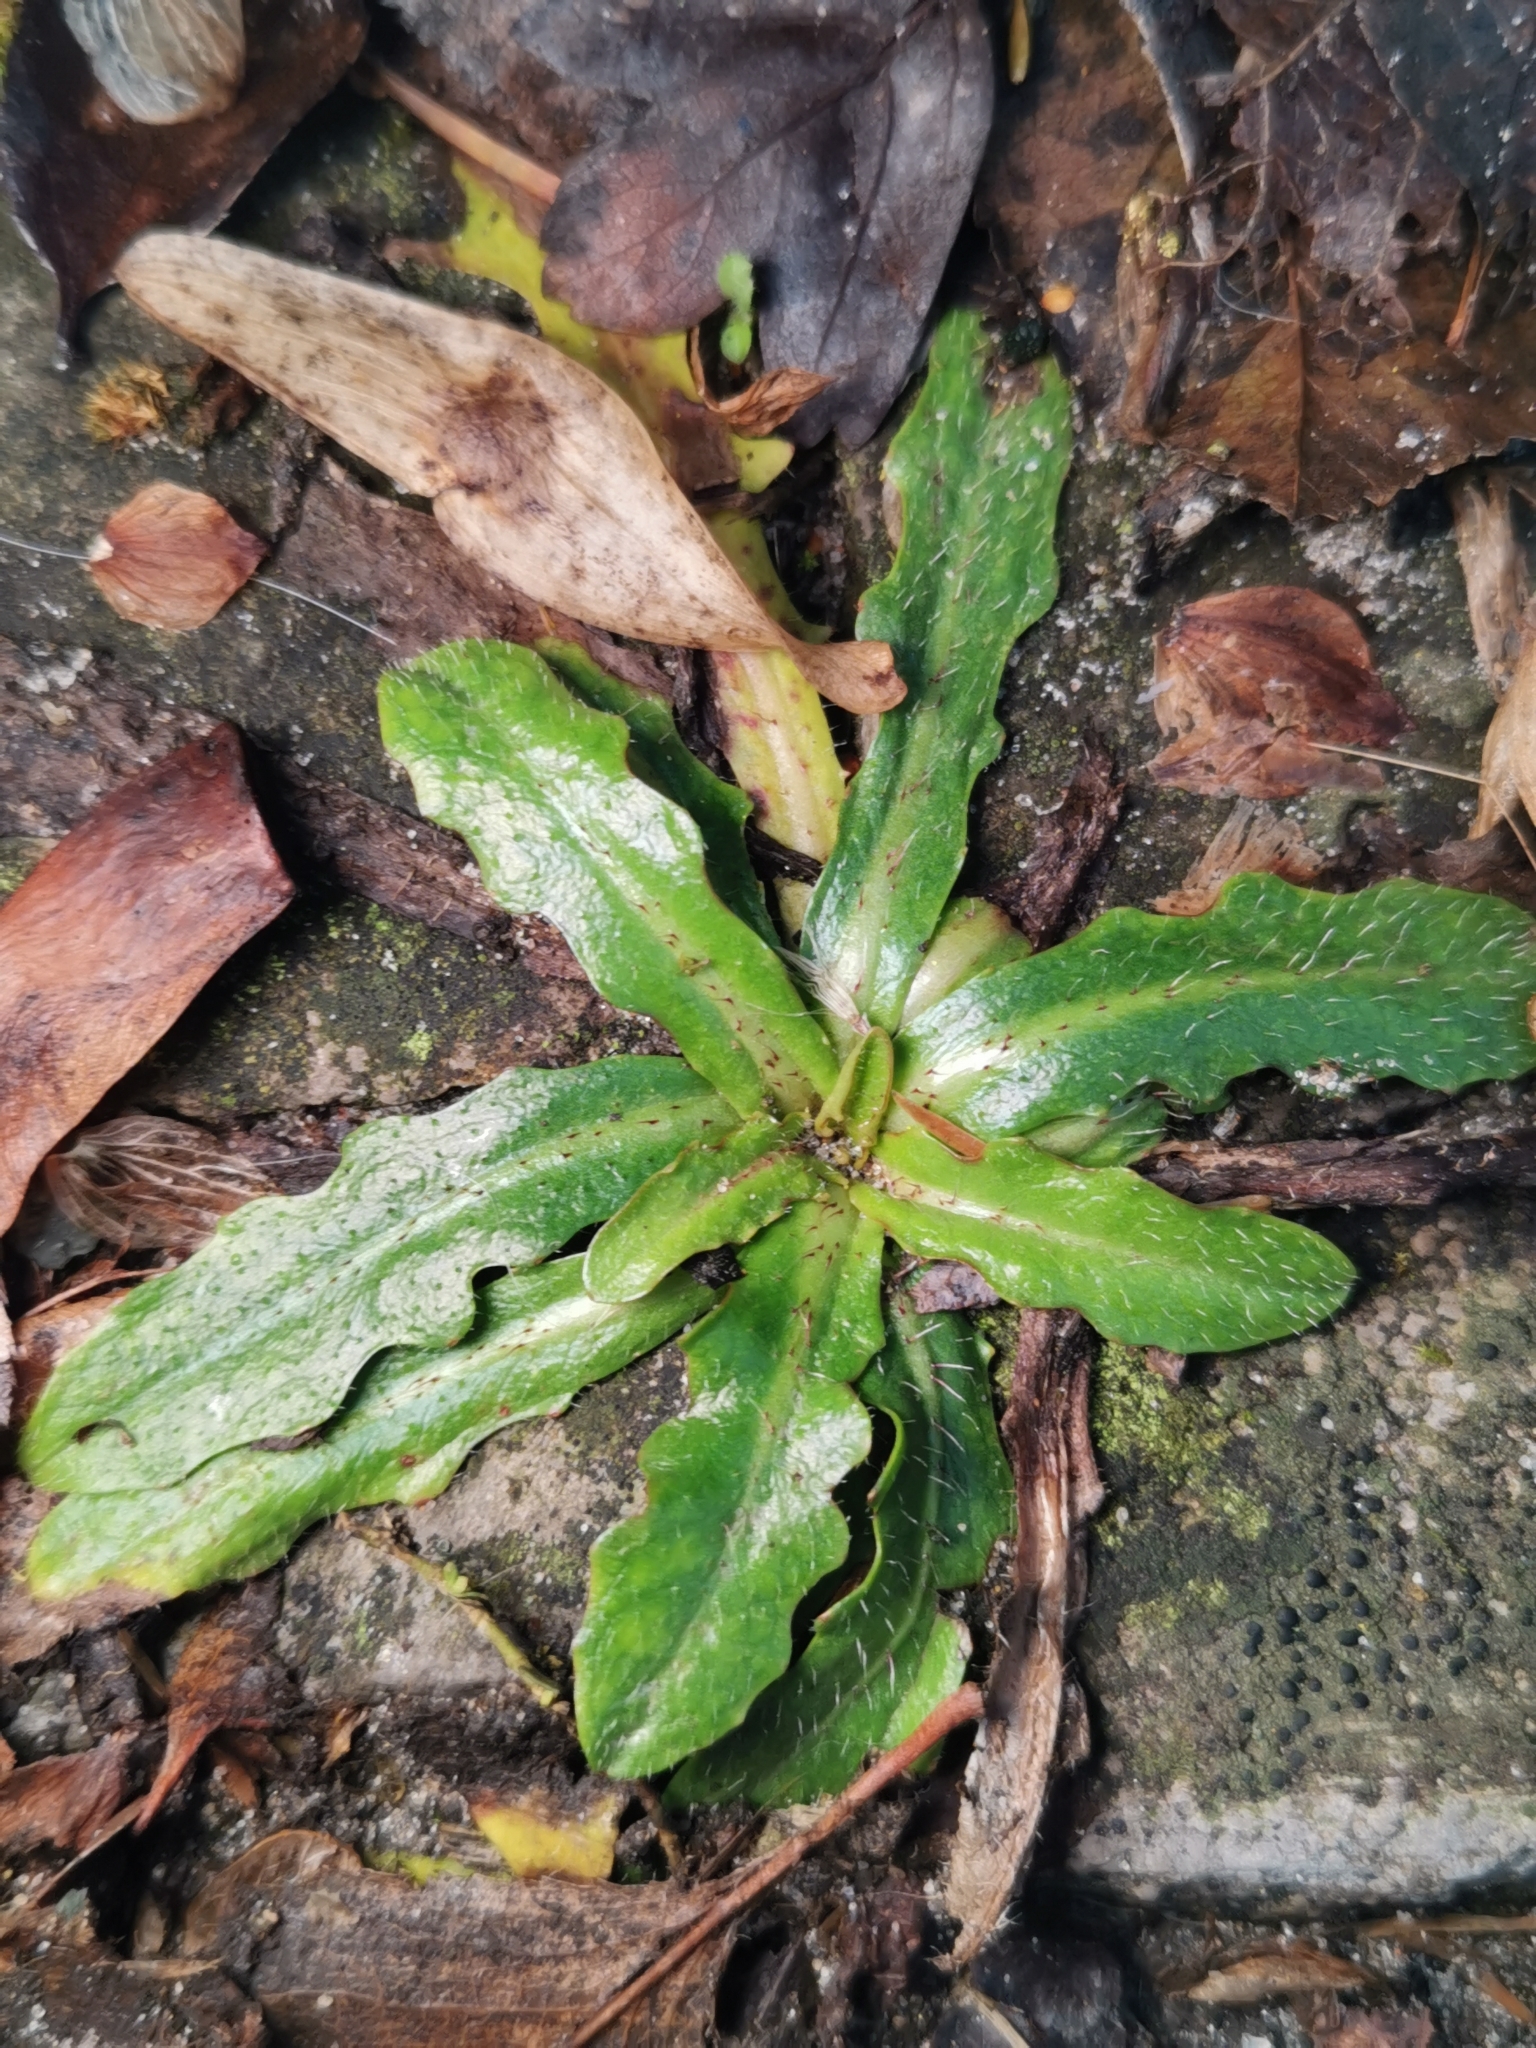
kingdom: Plantae
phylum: Tracheophyta
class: Magnoliopsida
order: Asterales
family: Asteraceae
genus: Hypochaeris
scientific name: Hypochaeris radicata
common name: Flatweed
